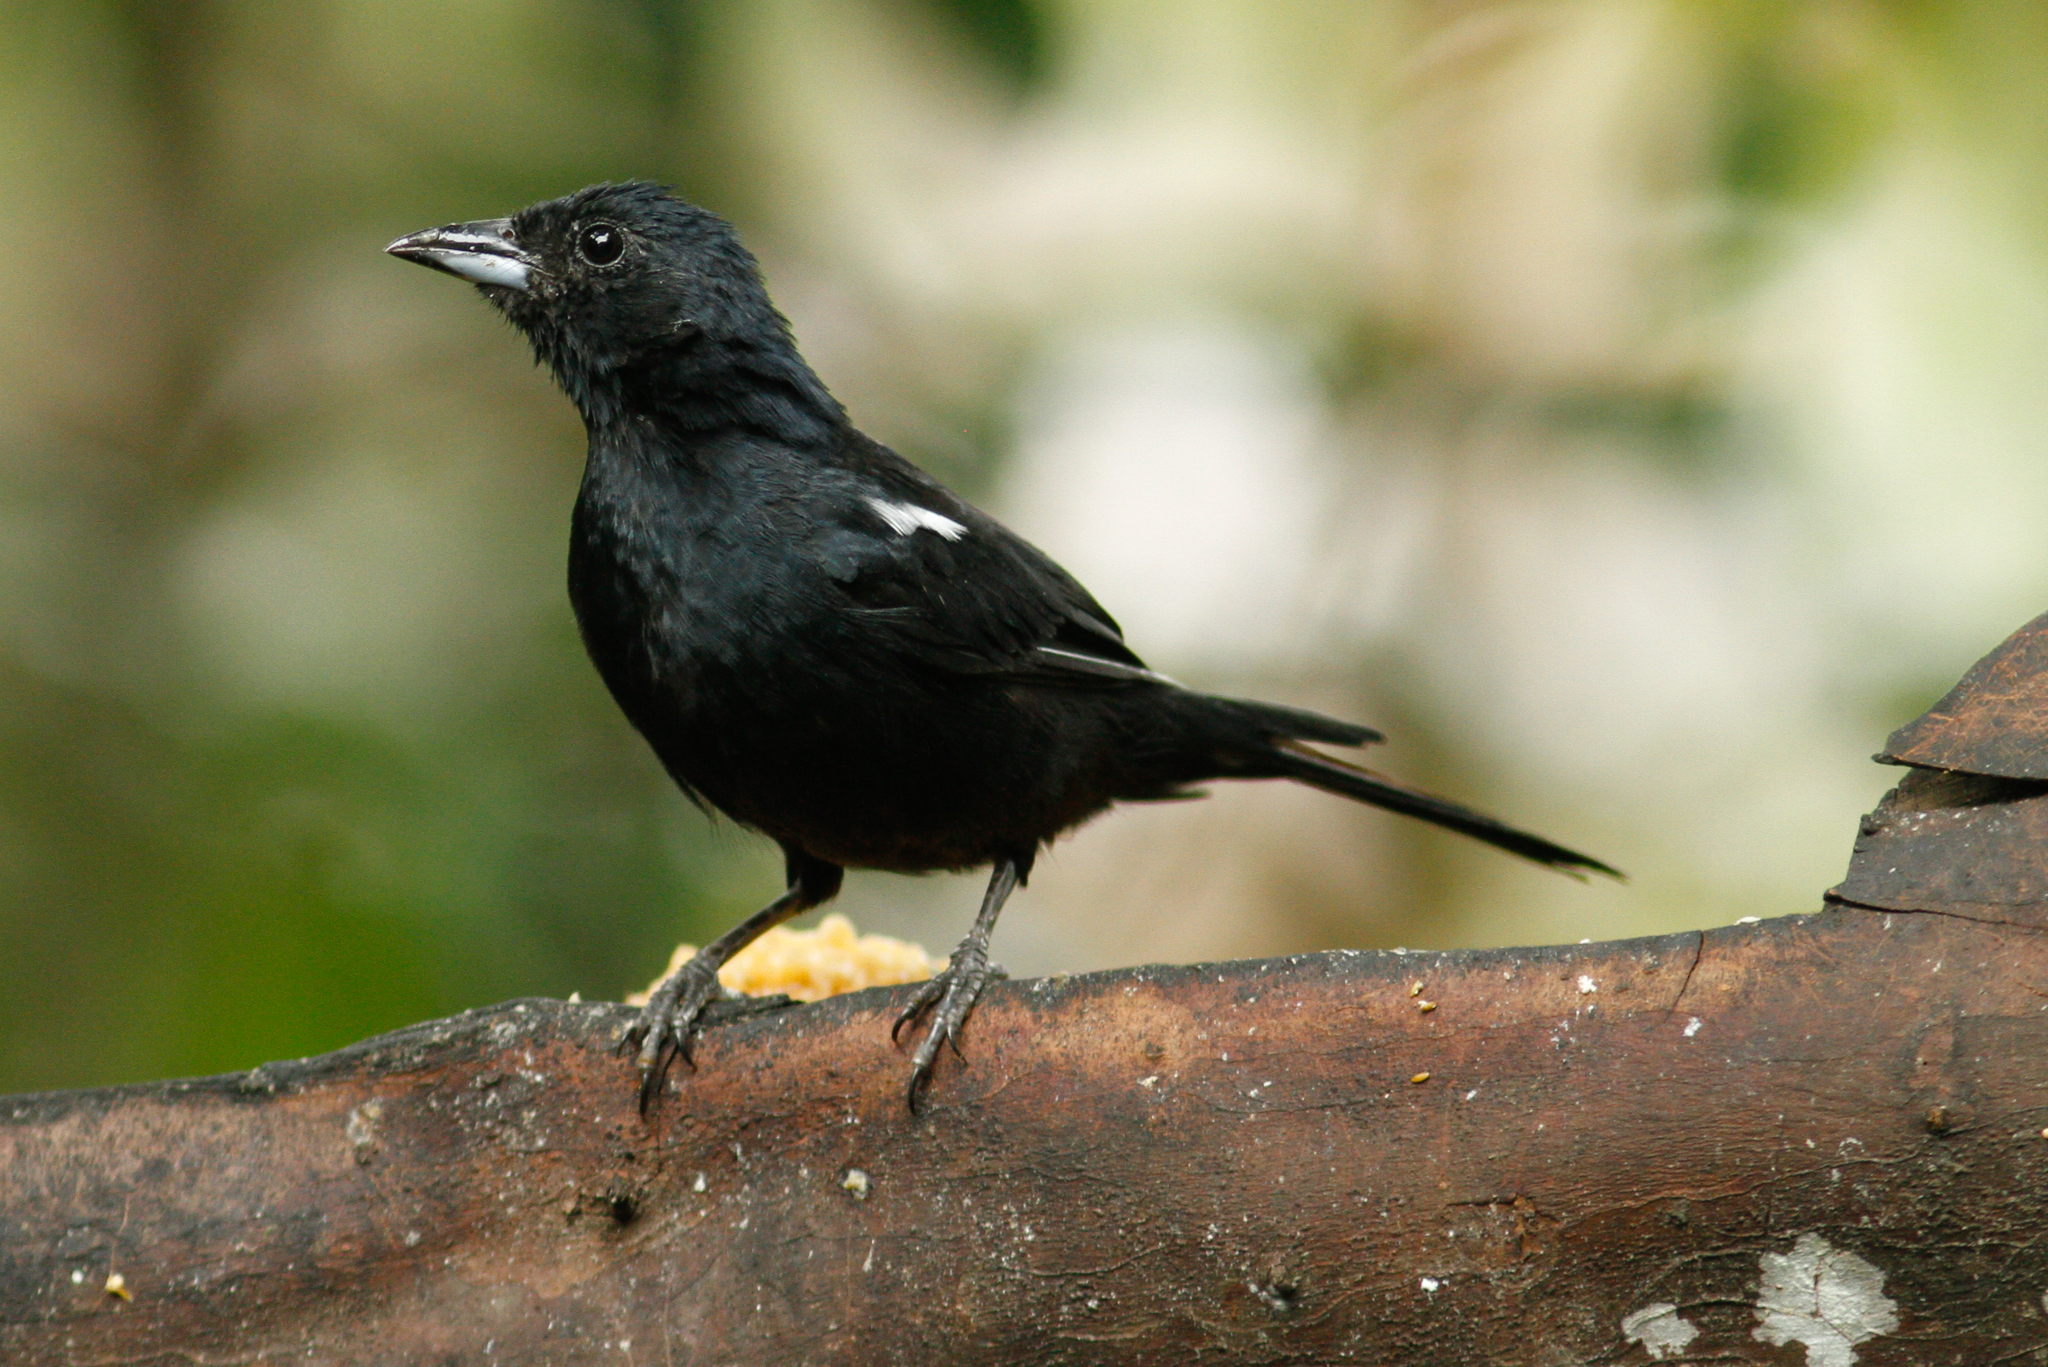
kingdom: Animalia
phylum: Chordata
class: Aves
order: Passeriformes
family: Thraupidae
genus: Tachyphonus
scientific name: Tachyphonus rufus
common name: White-lined tanager
